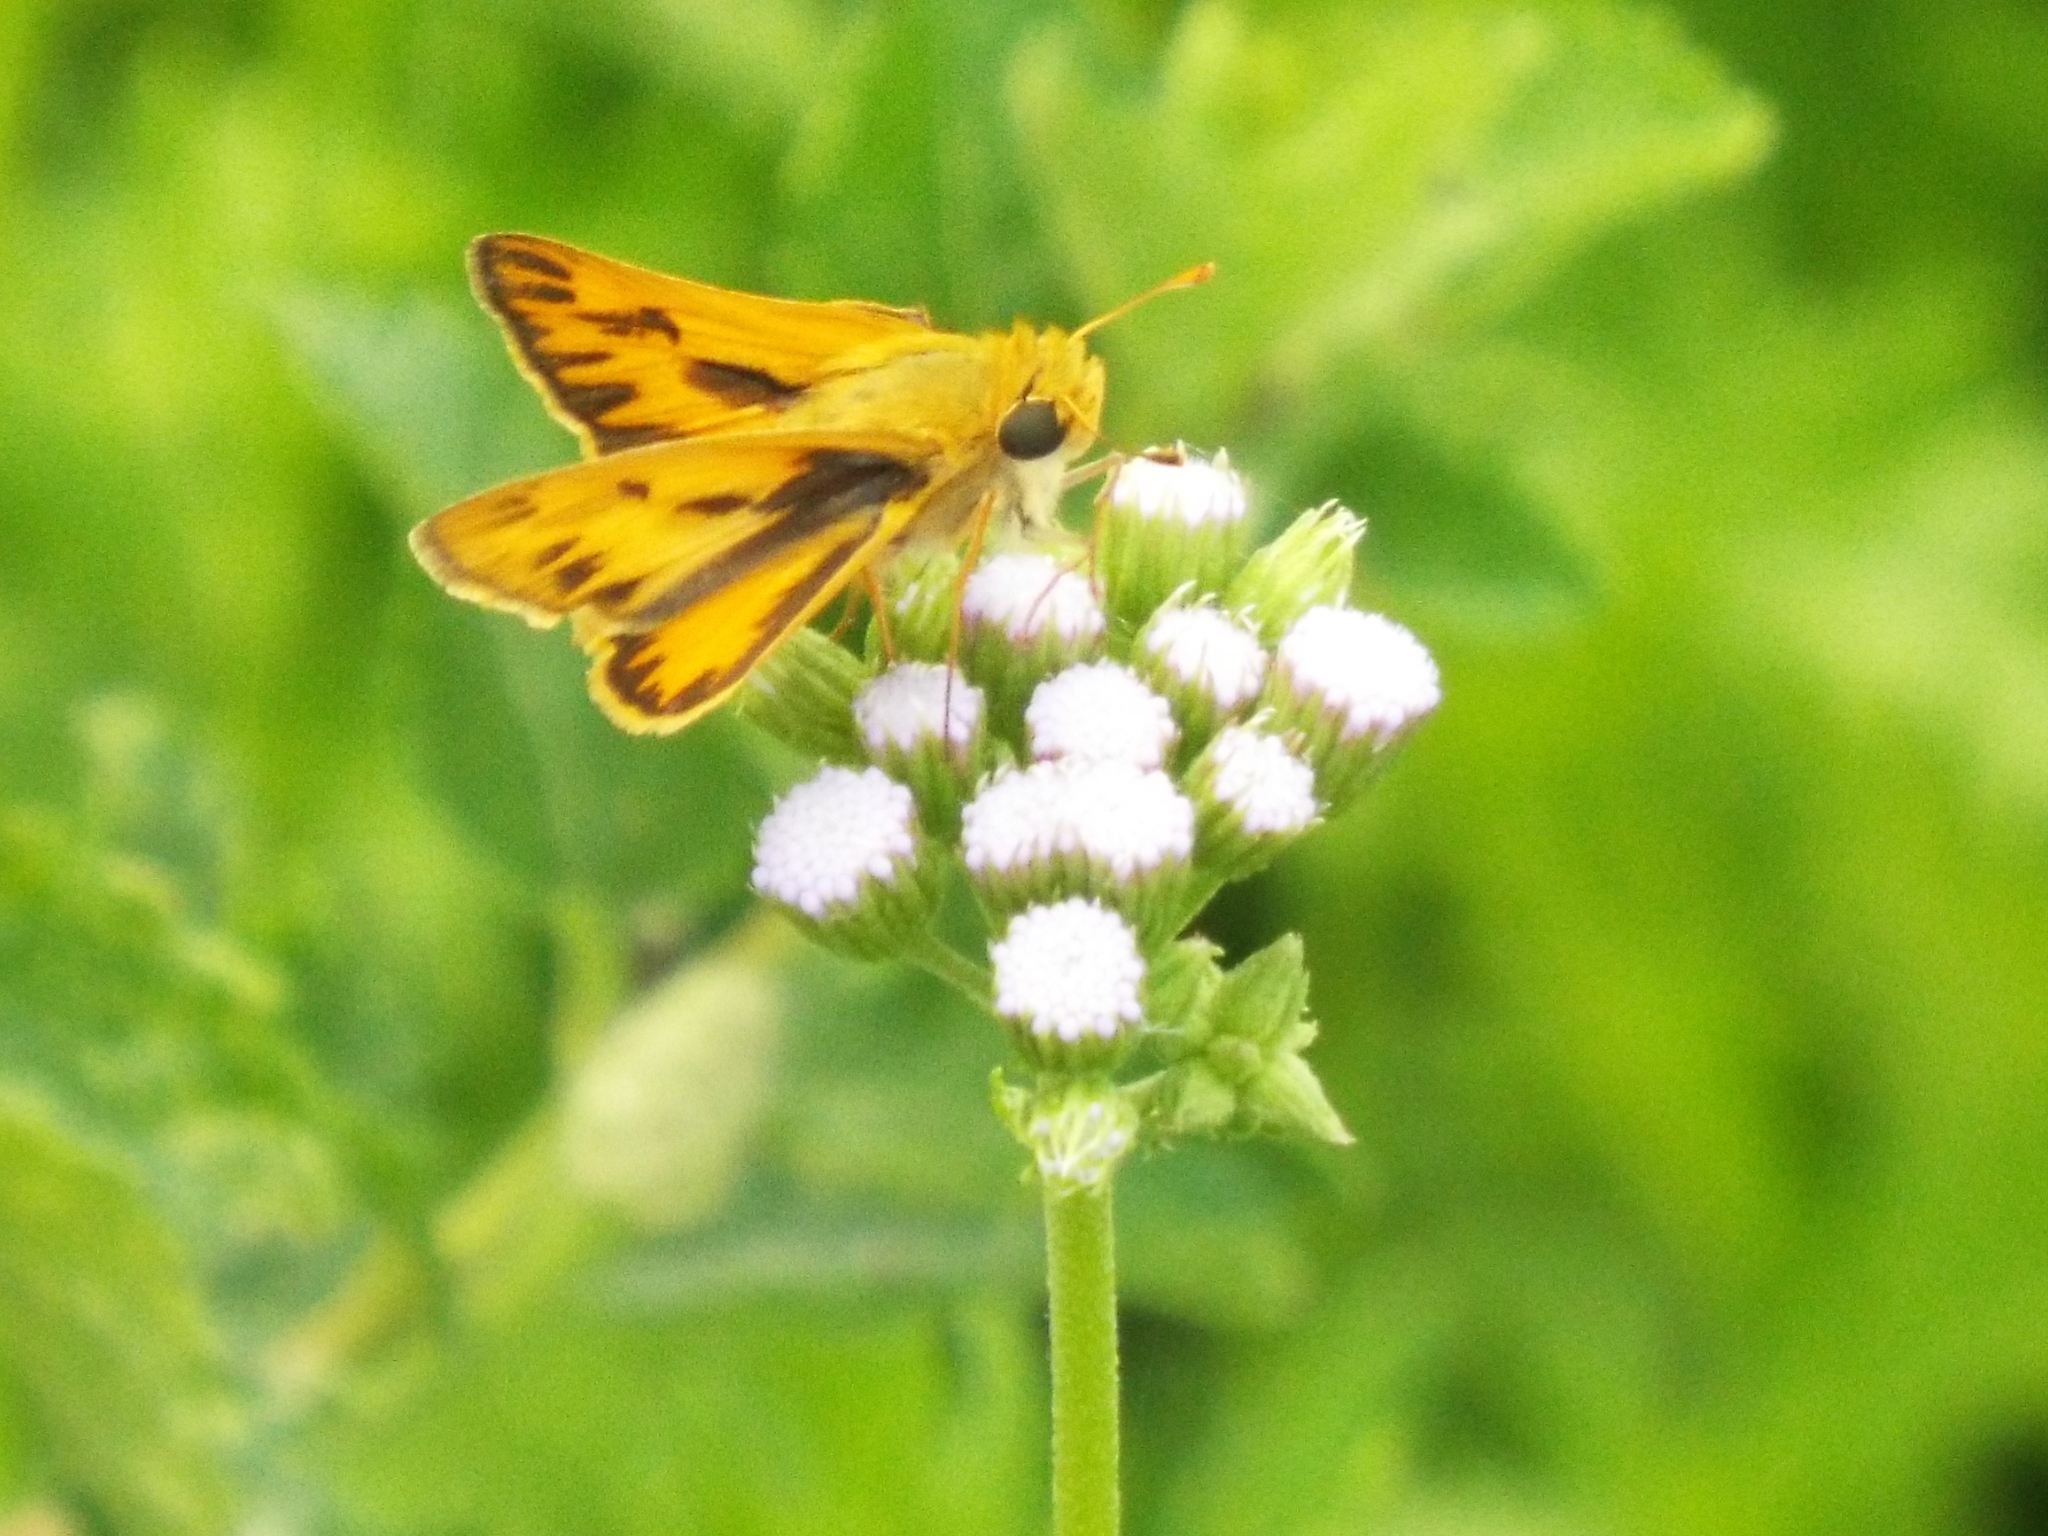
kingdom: Animalia
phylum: Arthropoda
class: Insecta
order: Lepidoptera
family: Hesperiidae
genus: Hylephila
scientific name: Hylephila phyleus
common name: Fiery skipper
